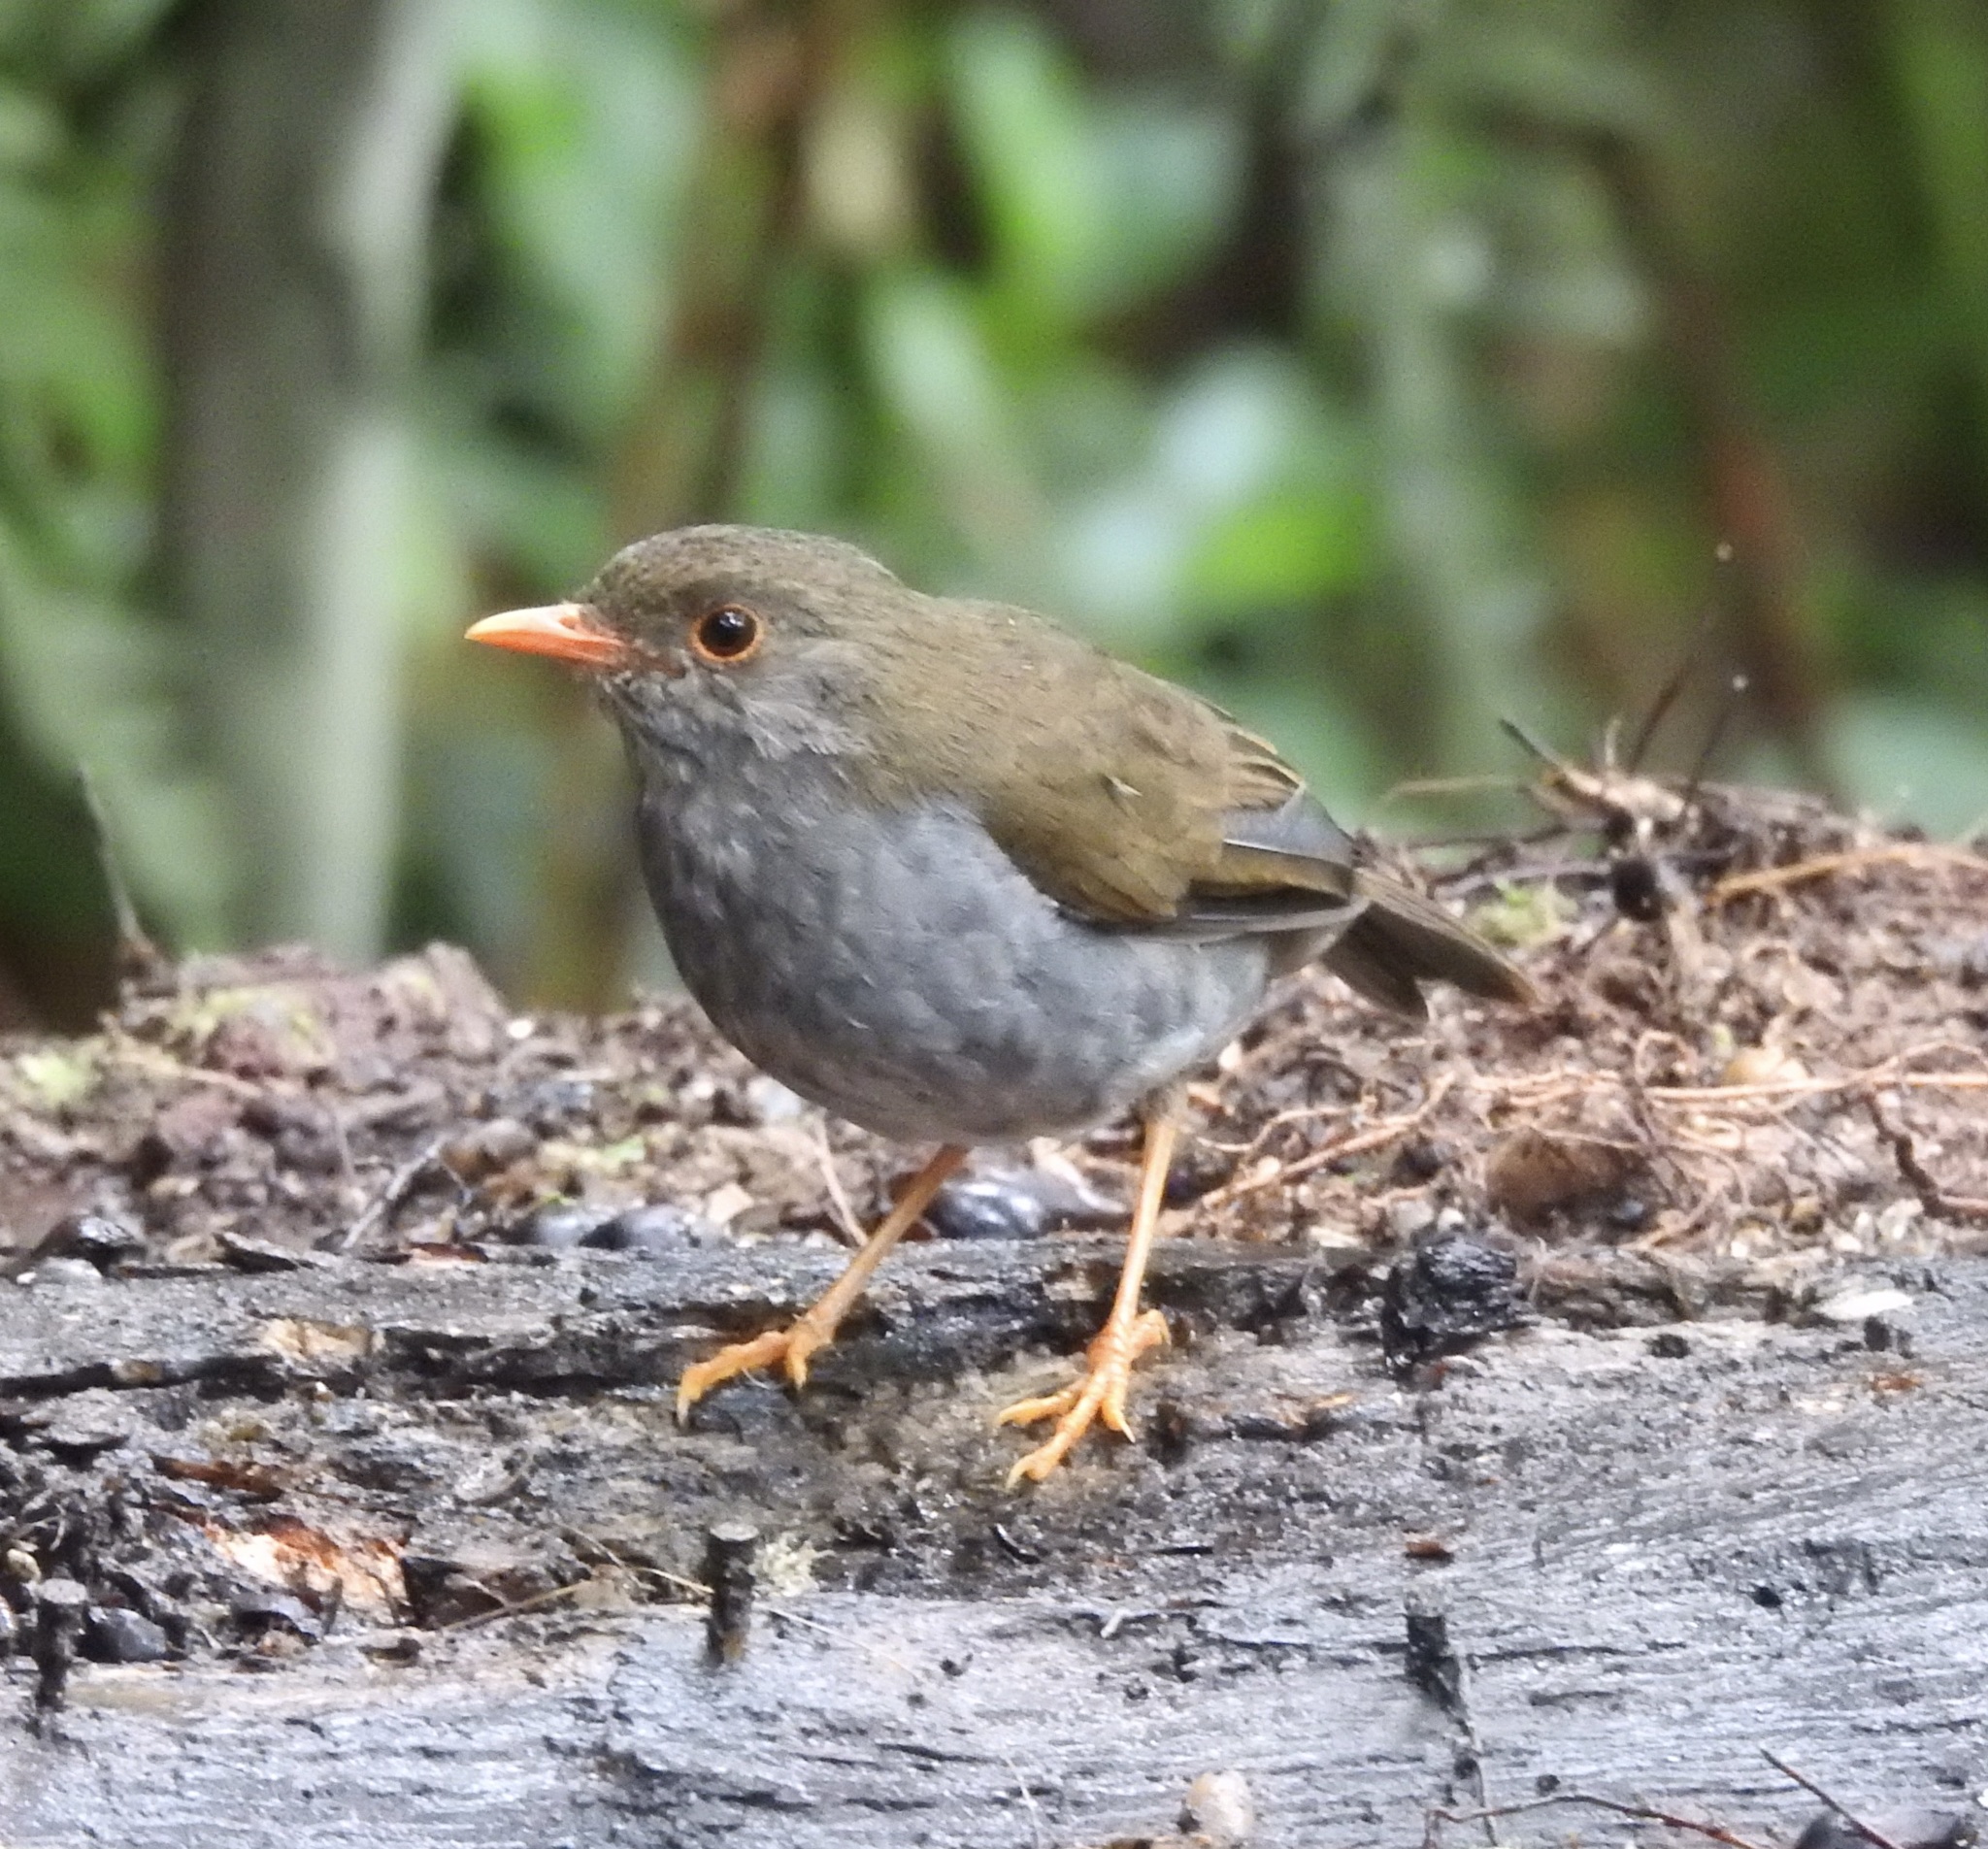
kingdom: Animalia
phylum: Chordata
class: Aves
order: Passeriformes
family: Turdidae
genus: Catharus
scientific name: Catharus aurantiirostris
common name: Orange-billed nightingale-thrush
